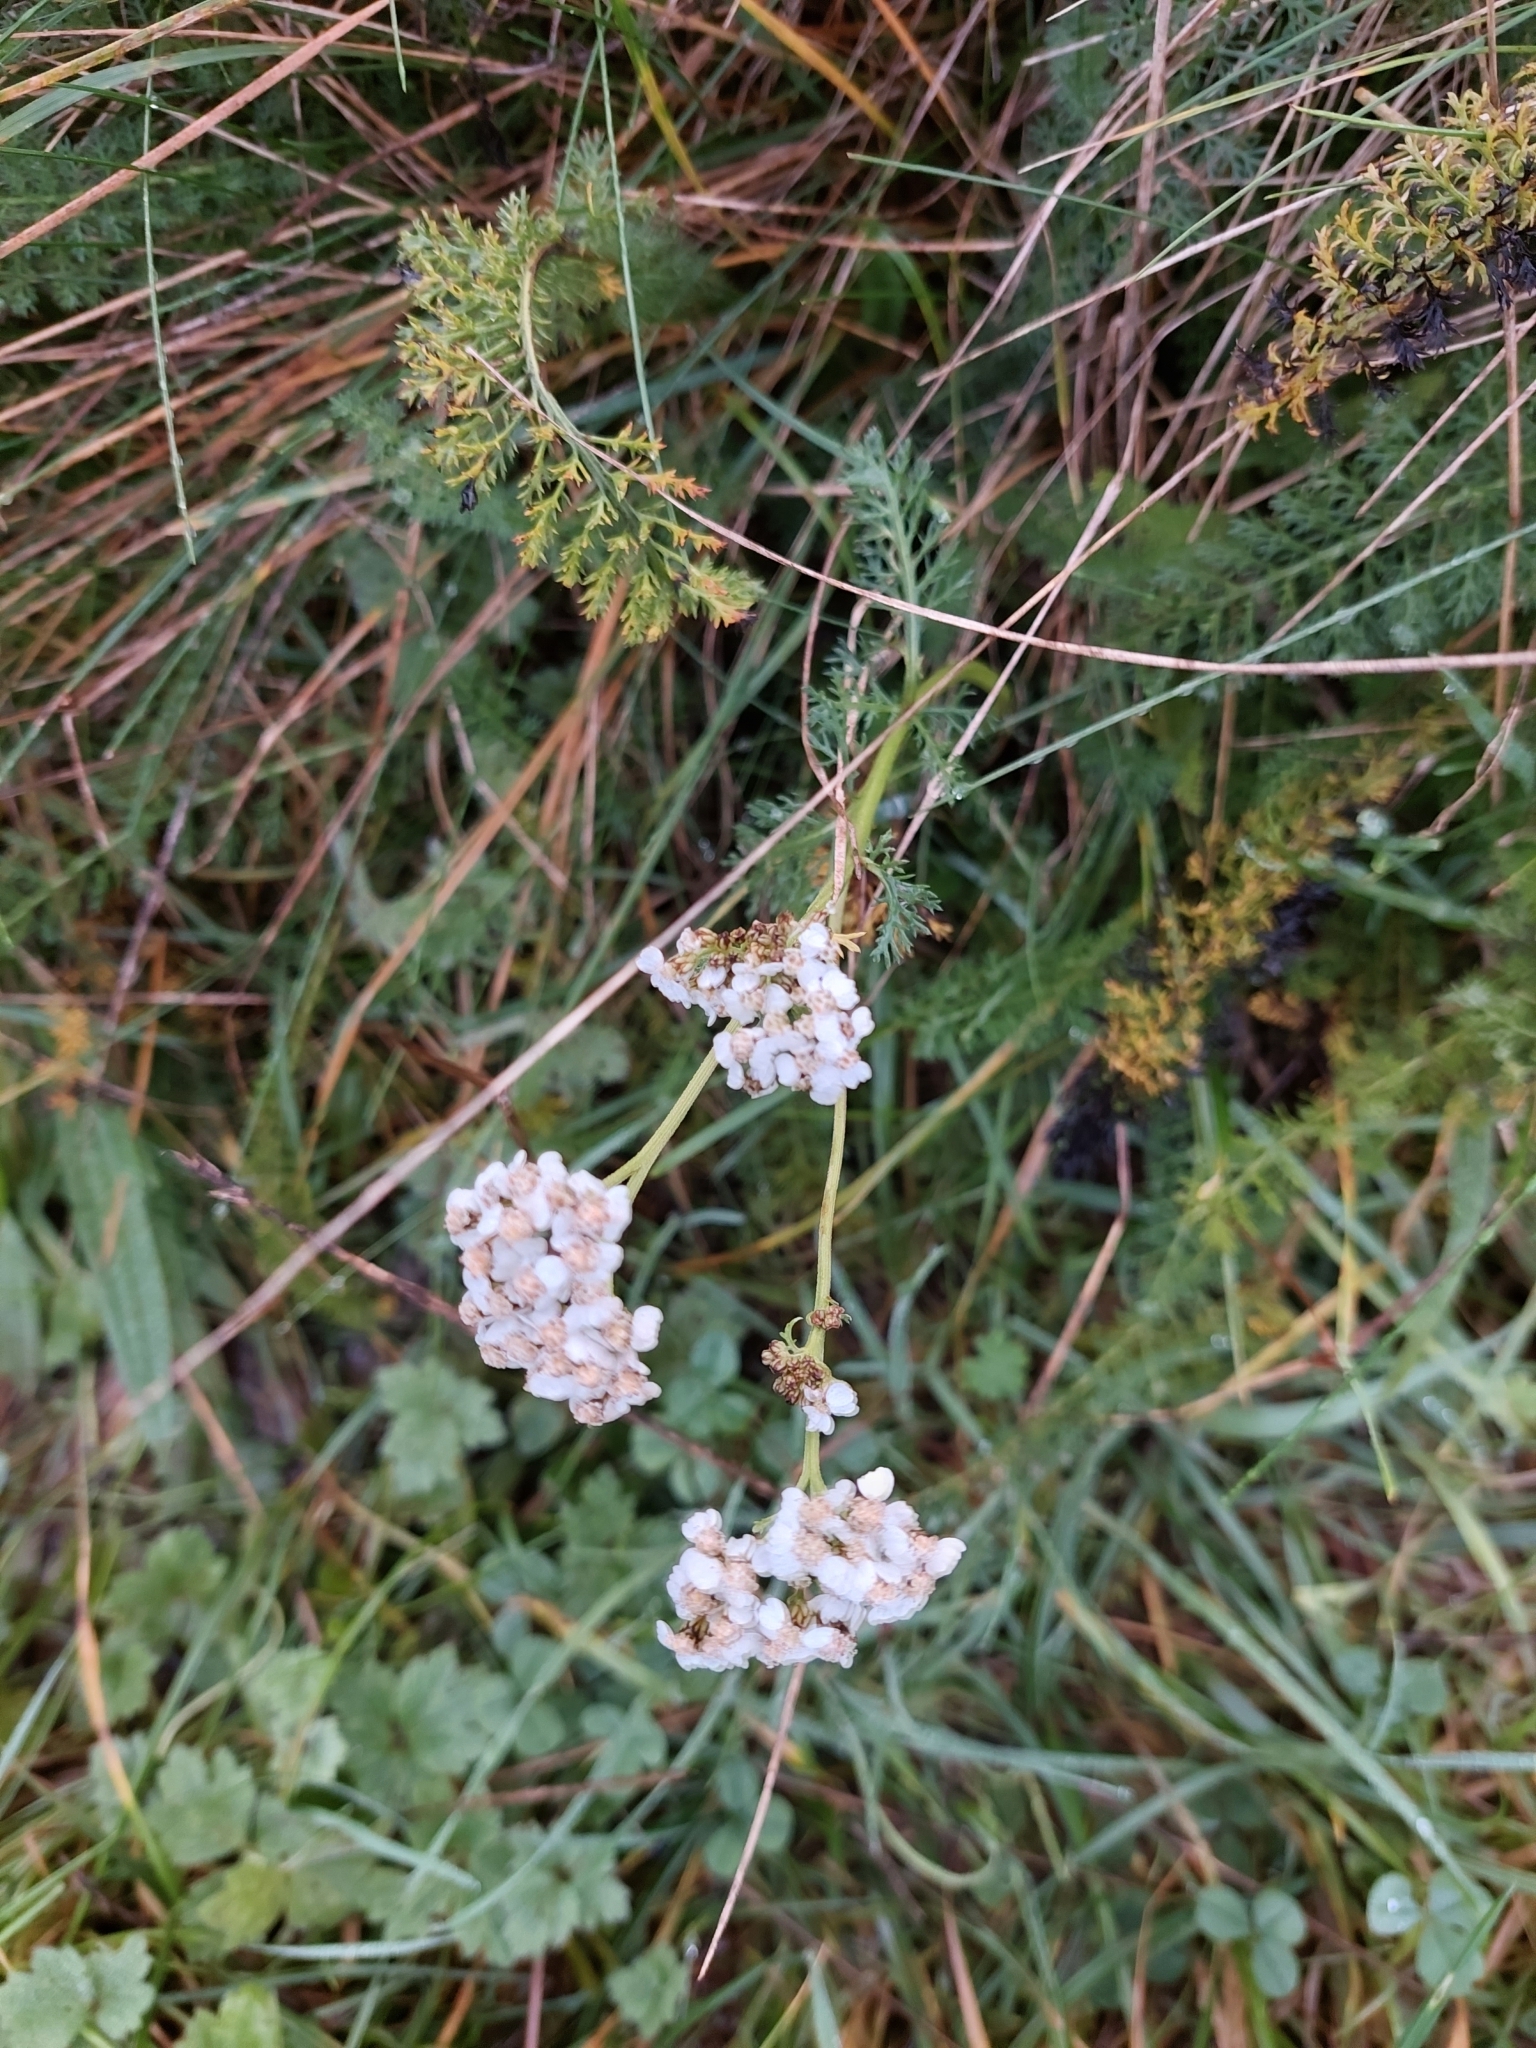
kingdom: Plantae
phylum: Tracheophyta
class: Magnoliopsida
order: Asterales
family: Asteraceae
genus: Achillea
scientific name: Achillea millefolium
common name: Yarrow
